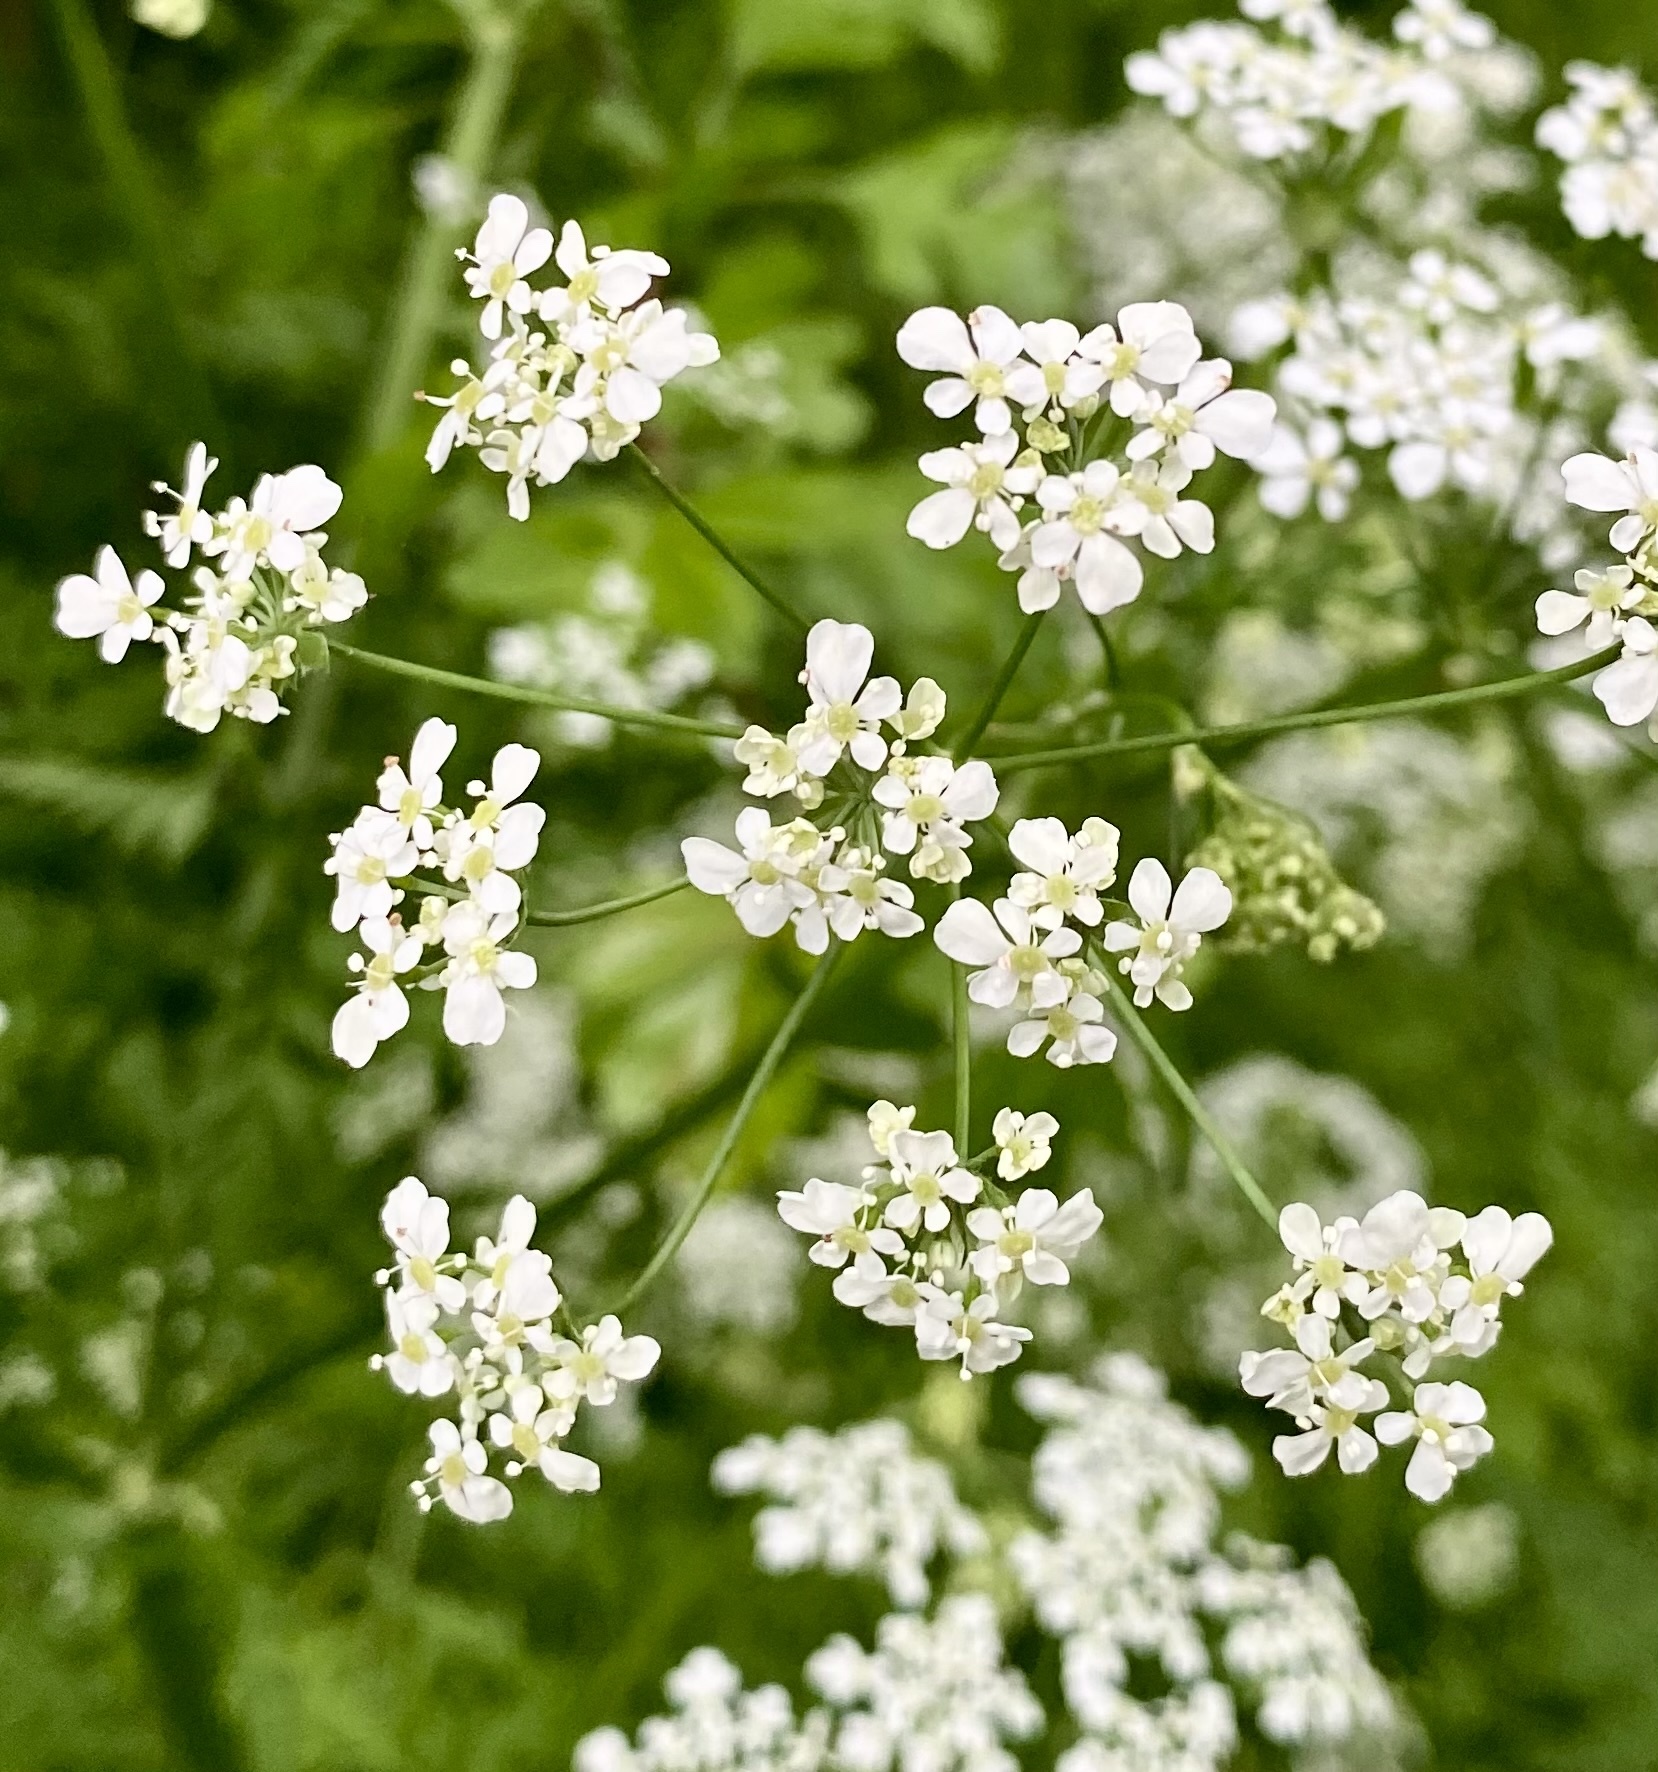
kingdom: Plantae
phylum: Tracheophyta
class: Magnoliopsida
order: Apiales
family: Apiaceae
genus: Anthriscus
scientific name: Anthriscus sylvestris
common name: Cow parsley
